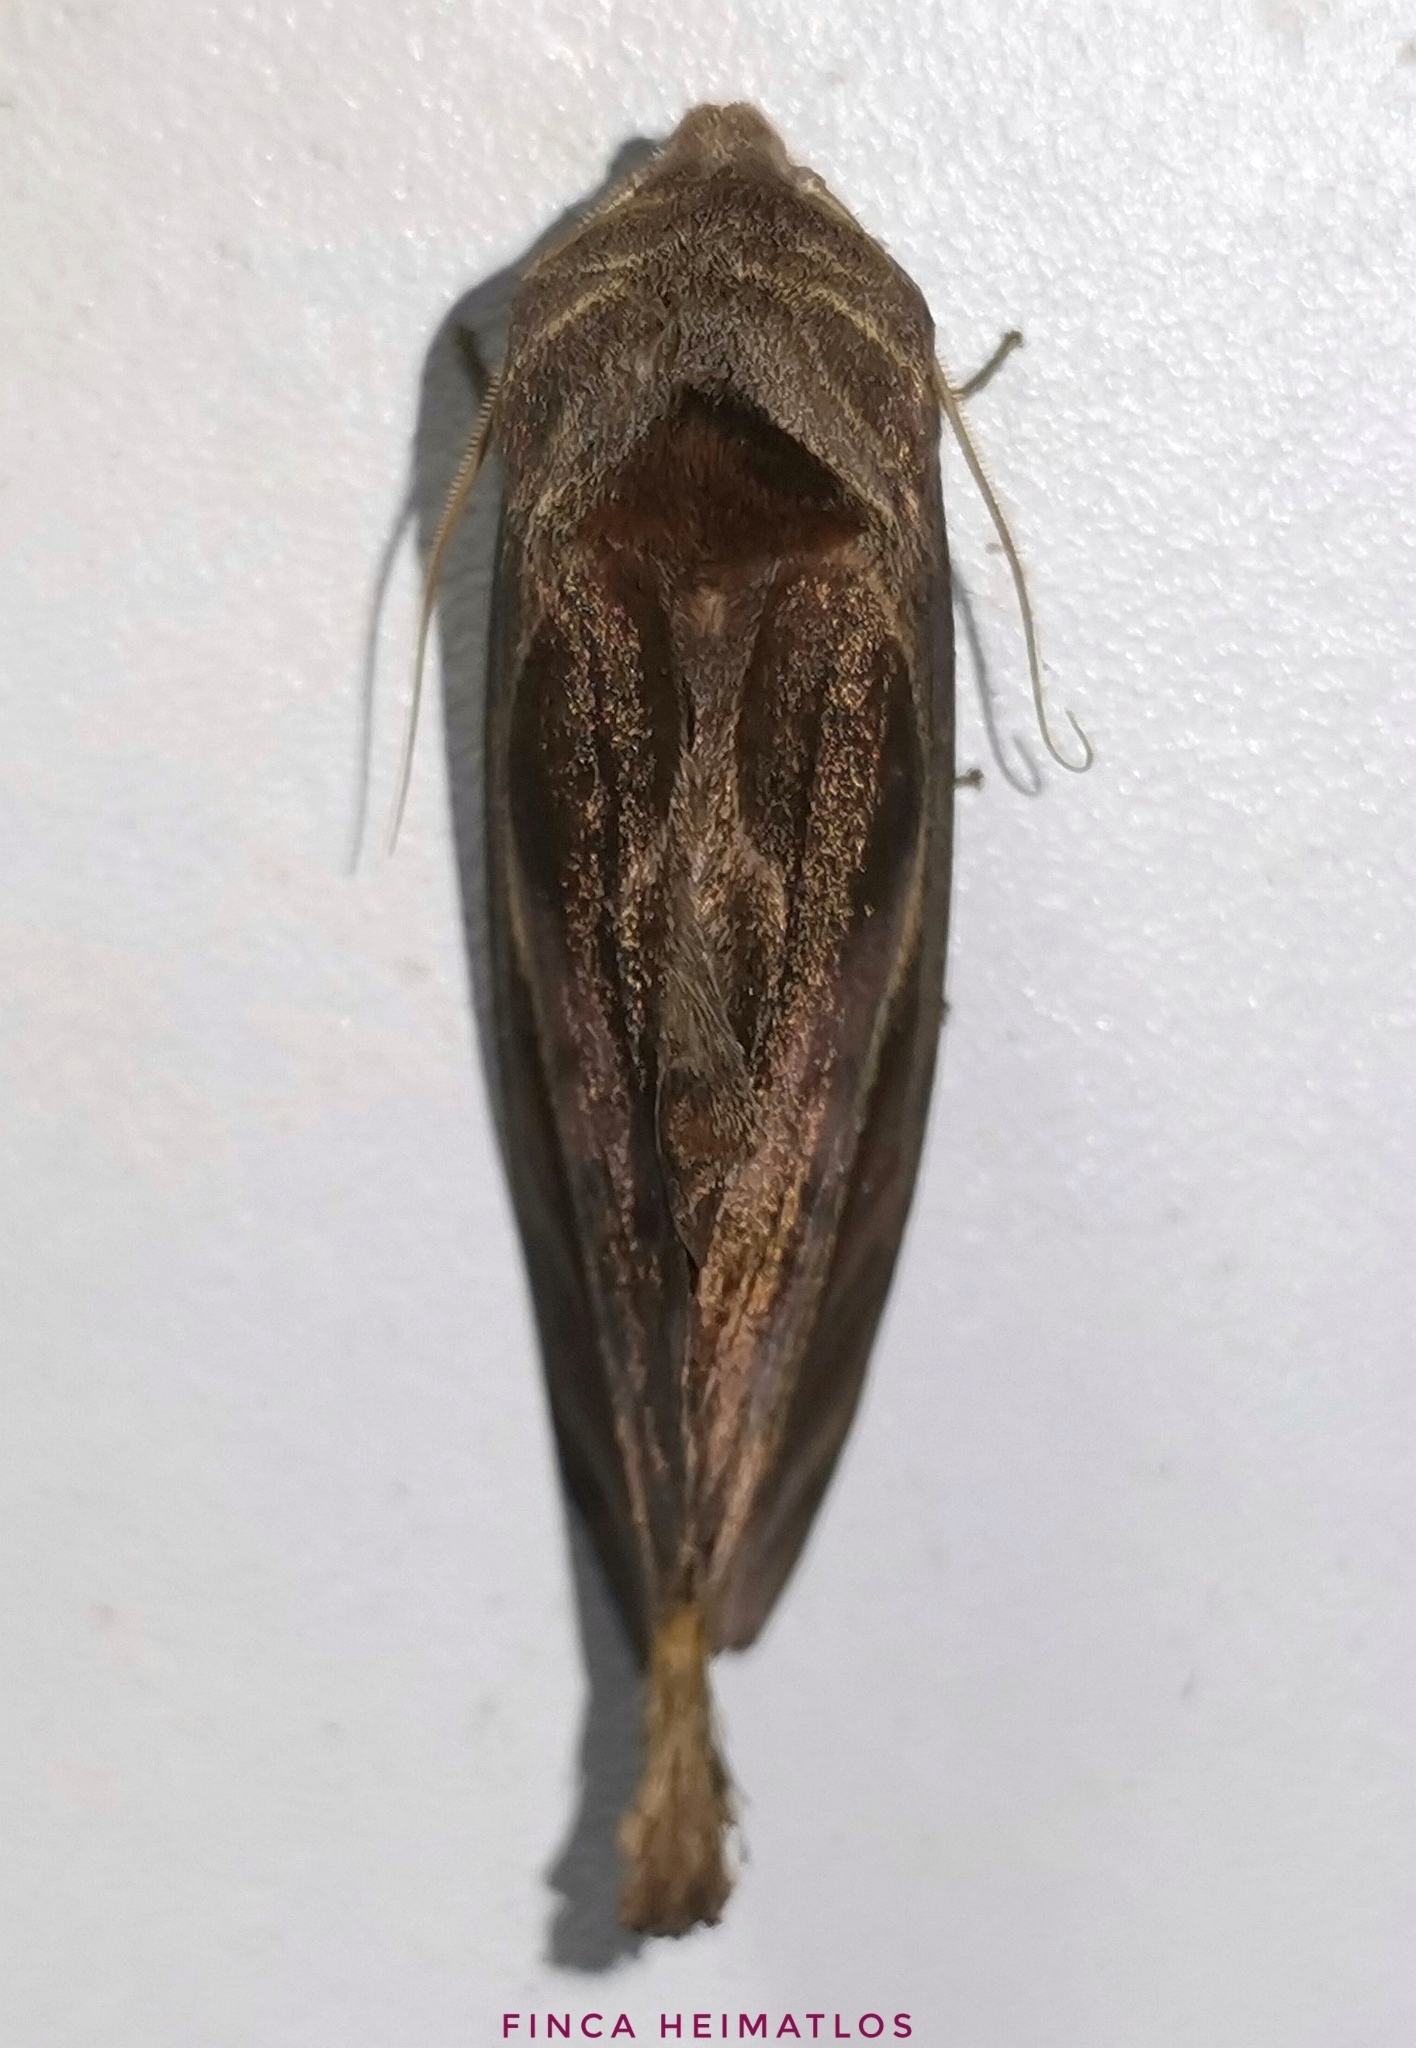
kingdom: Animalia
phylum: Arthropoda
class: Insecta
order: Lepidoptera
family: Notodontidae
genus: Crinodes
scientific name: Crinodes besckei
